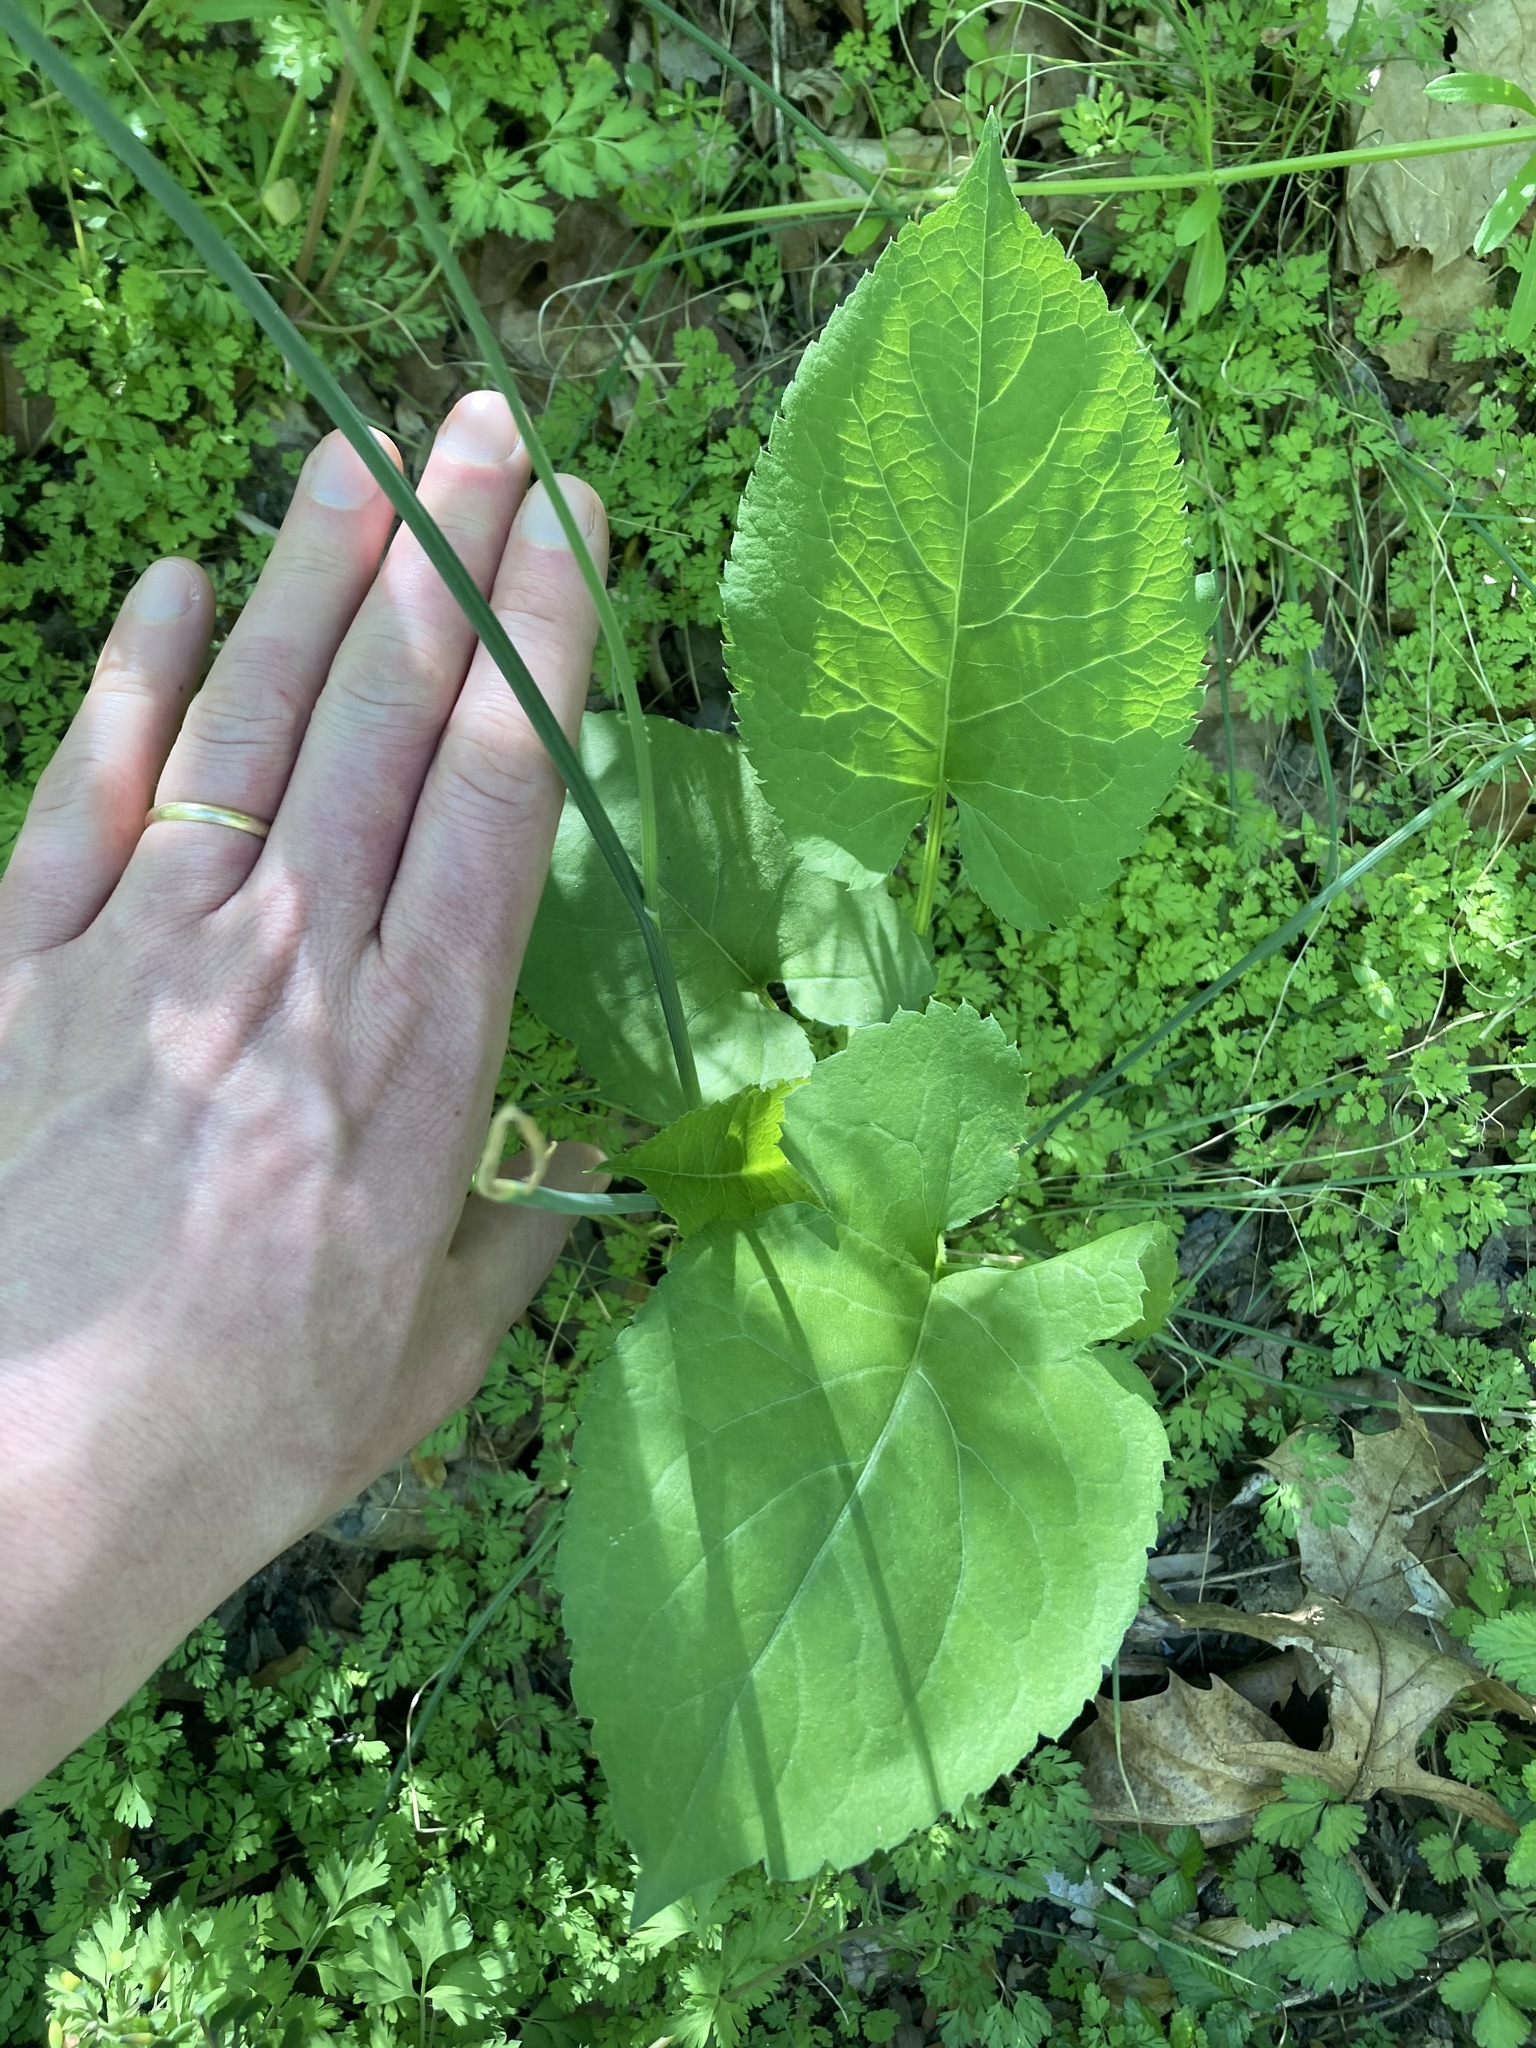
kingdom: Plantae
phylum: Tracheophyta
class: Magnoliopsida
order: Asterales
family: Asteraceae
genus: Eurybia
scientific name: Eurybia macrophylla
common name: Big-leaved aster
